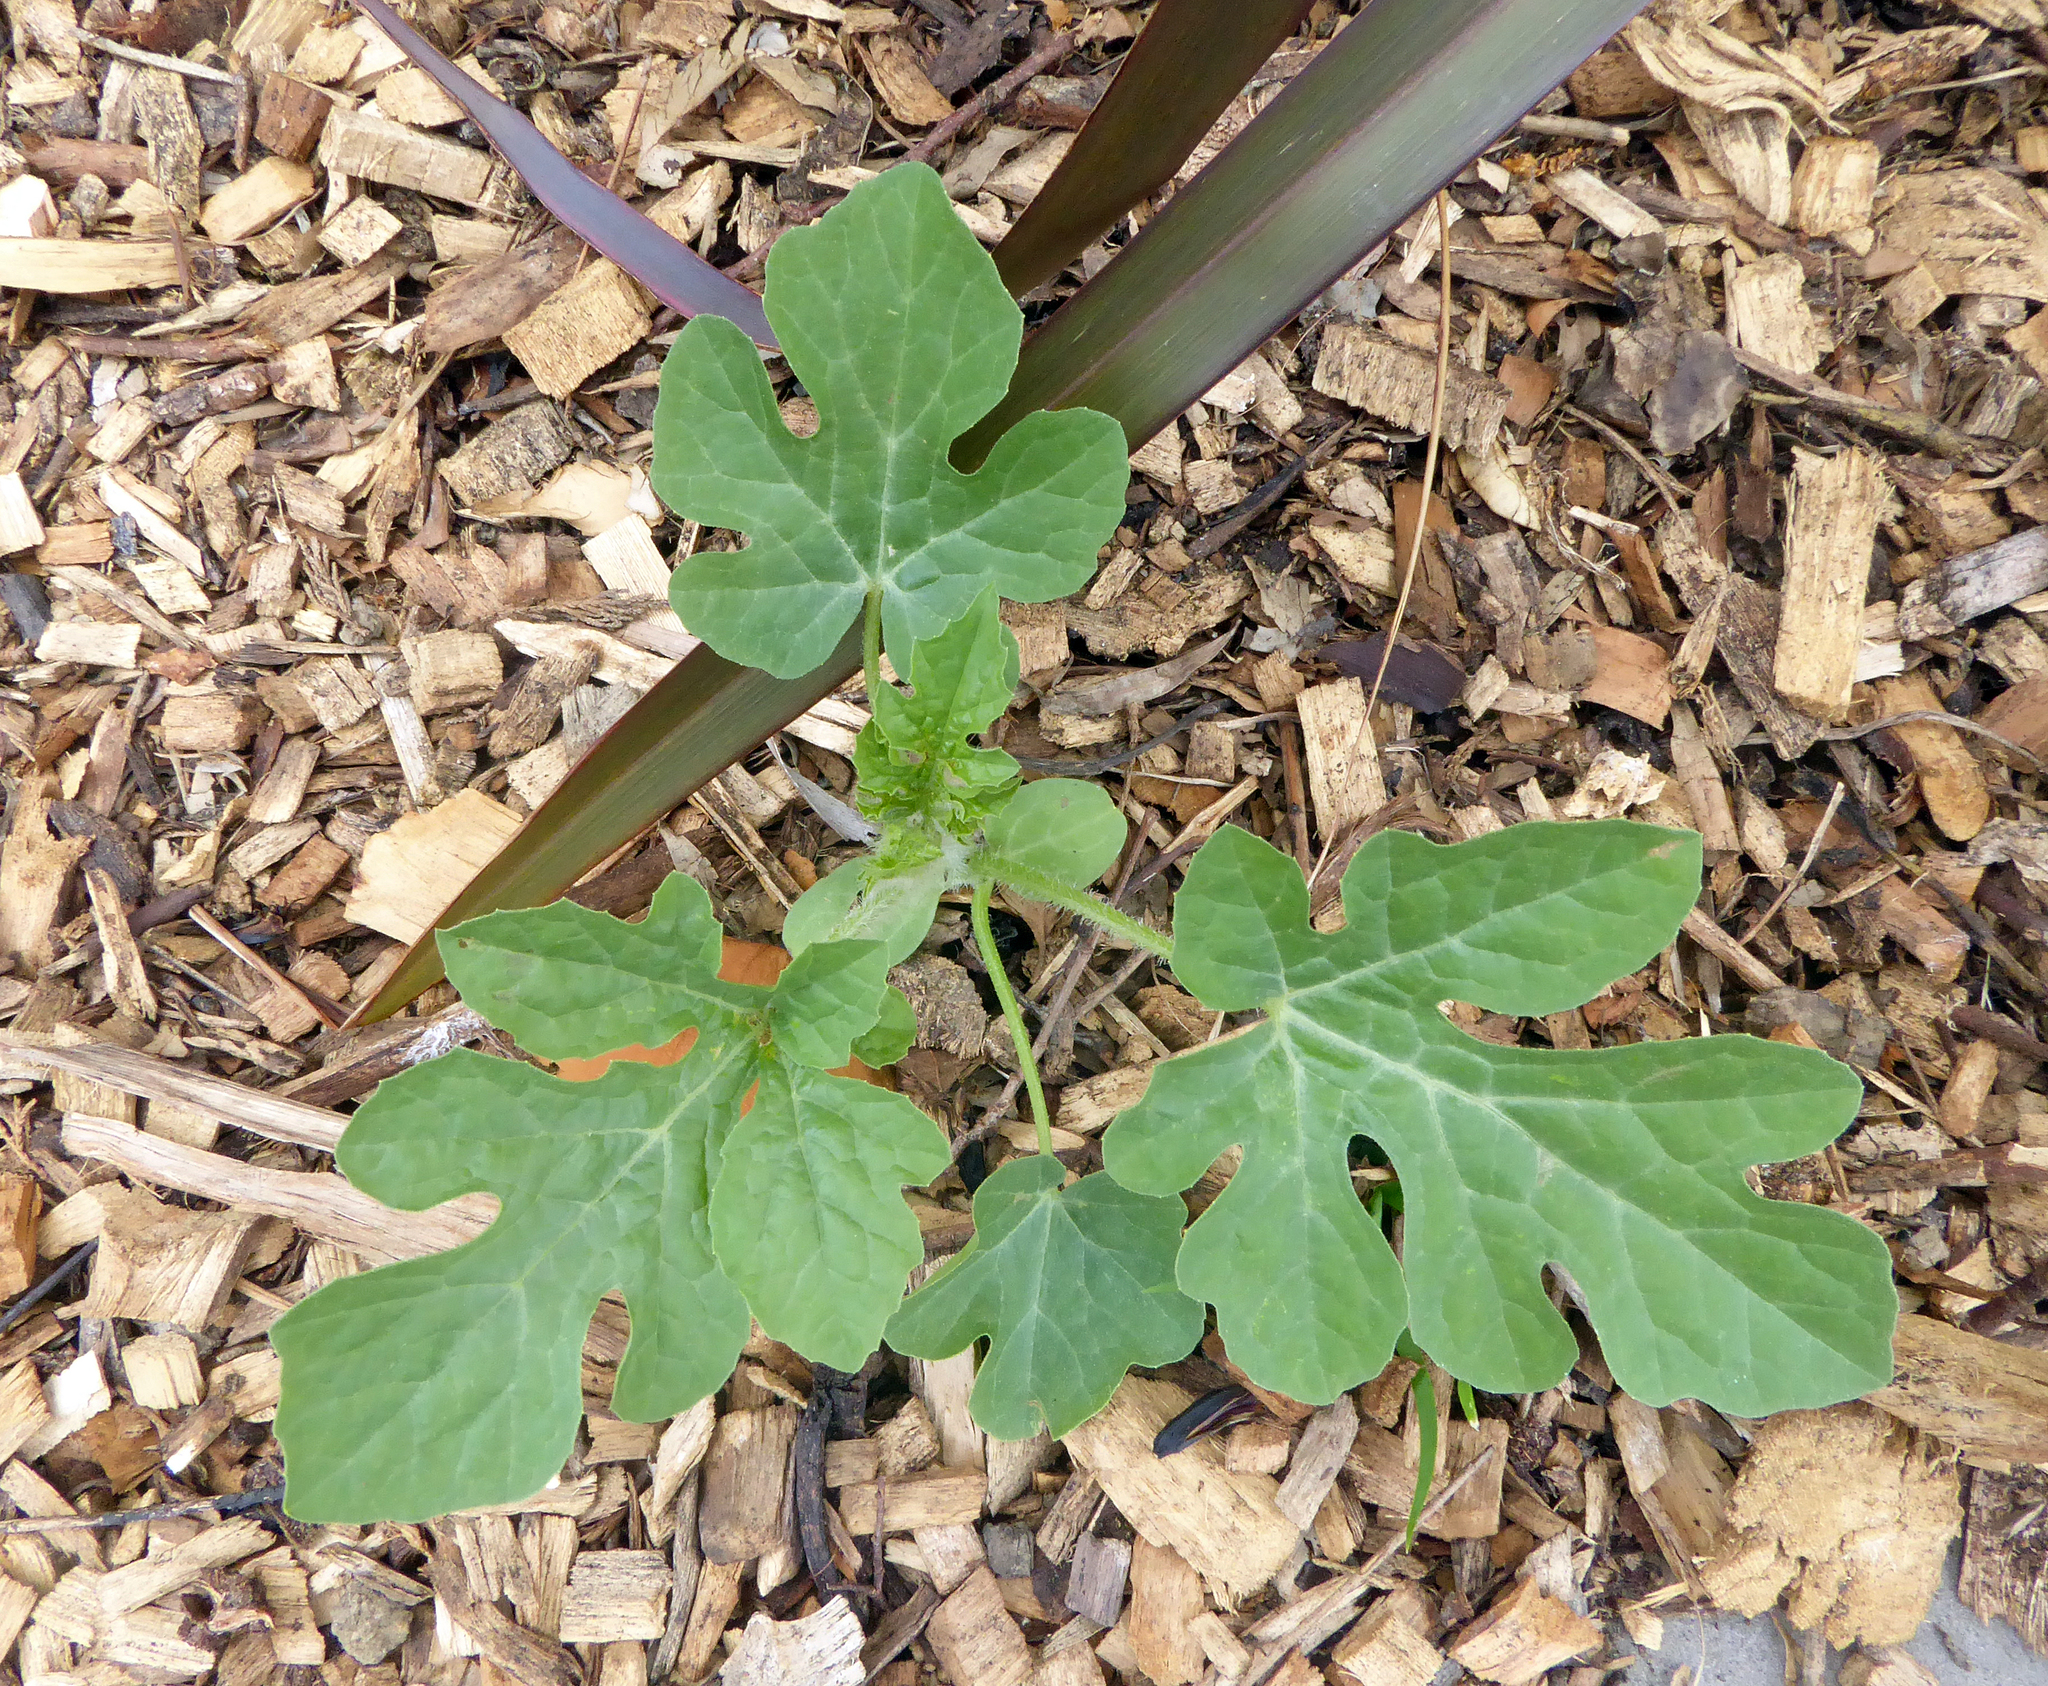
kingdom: Plantae
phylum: Tracheophyta
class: Magnoliopsida
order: Cucurbitales
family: Cucurbitaceae
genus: Citrullus
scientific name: Citrullus lanatus
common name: Watermelon
